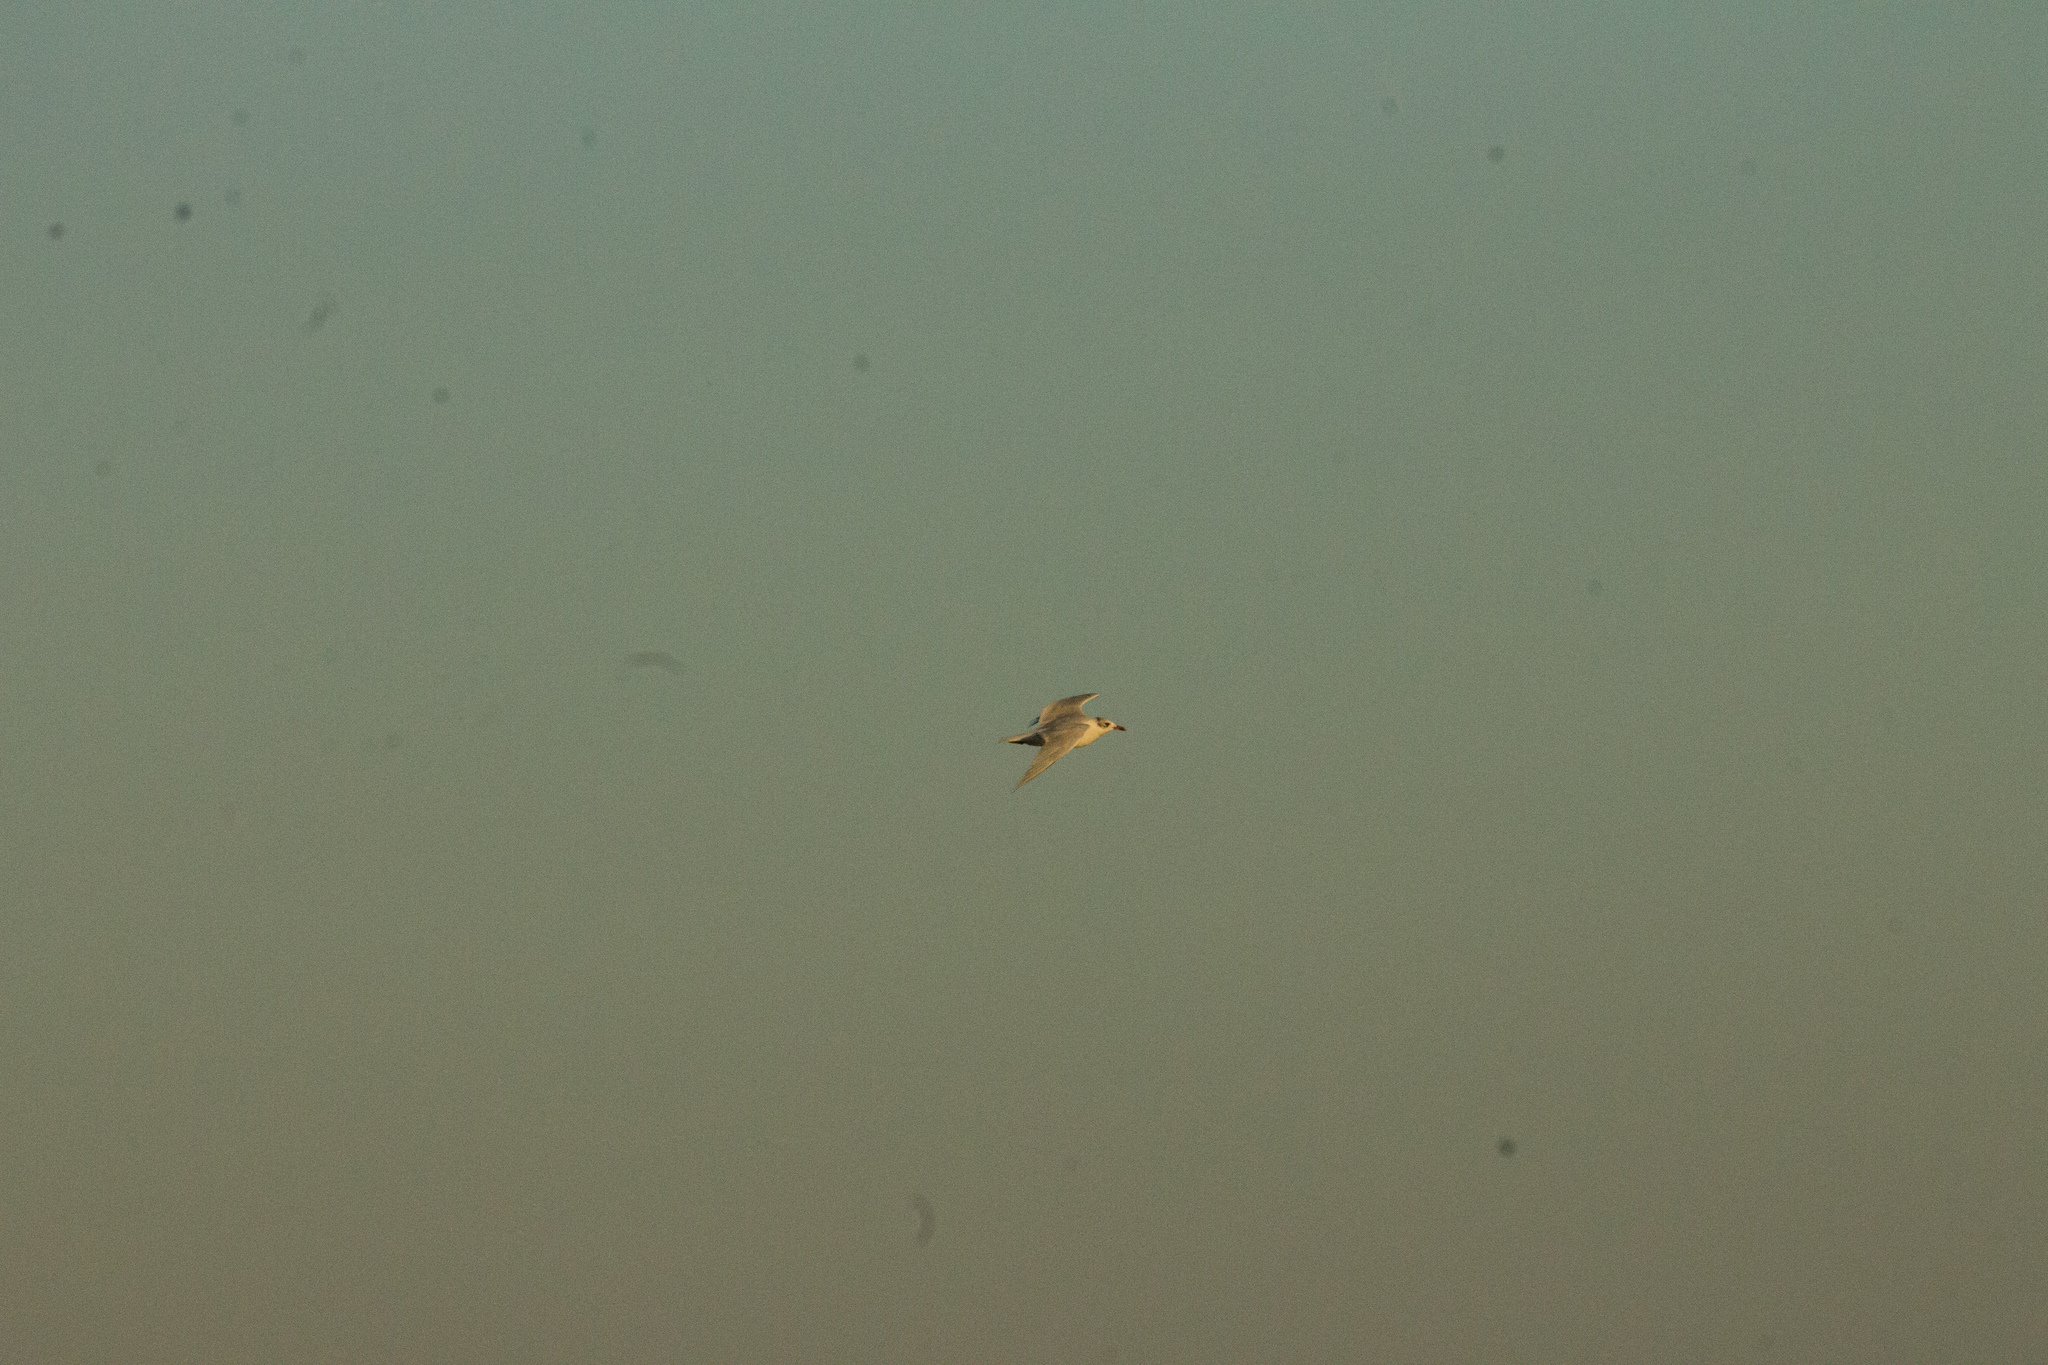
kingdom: Animalia
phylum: Chordata
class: Aves
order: Charadriiformes
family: Laridae
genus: Ichthyaetus
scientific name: Ichthyaetus melanocephalus
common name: Mediterranean gull
